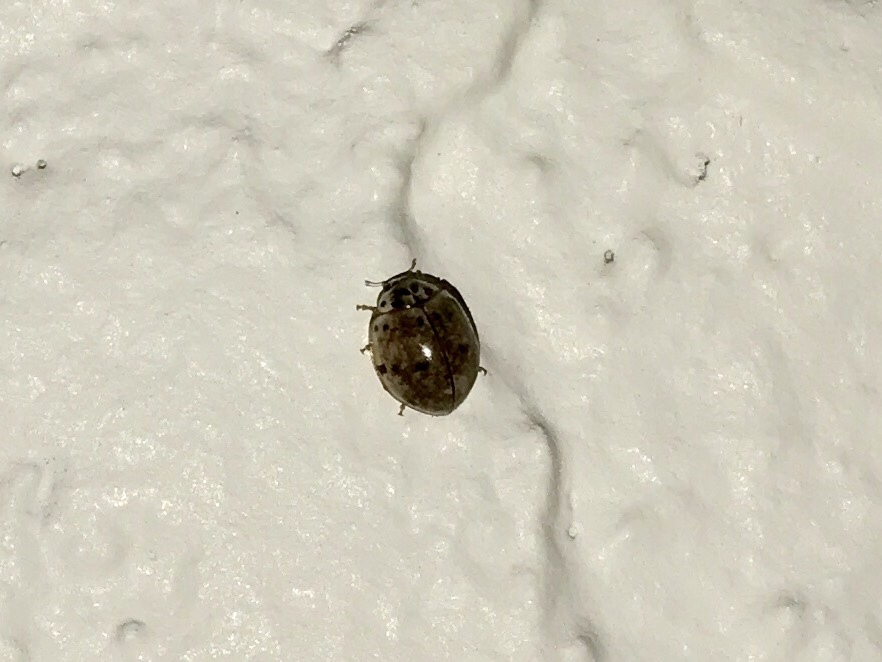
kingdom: Animalia
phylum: Arthropoda
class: Insecta
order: Coleoptera
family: Coccinellidae
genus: Olla
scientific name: Olla v-nigrum
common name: Ashy gray lady beetle
